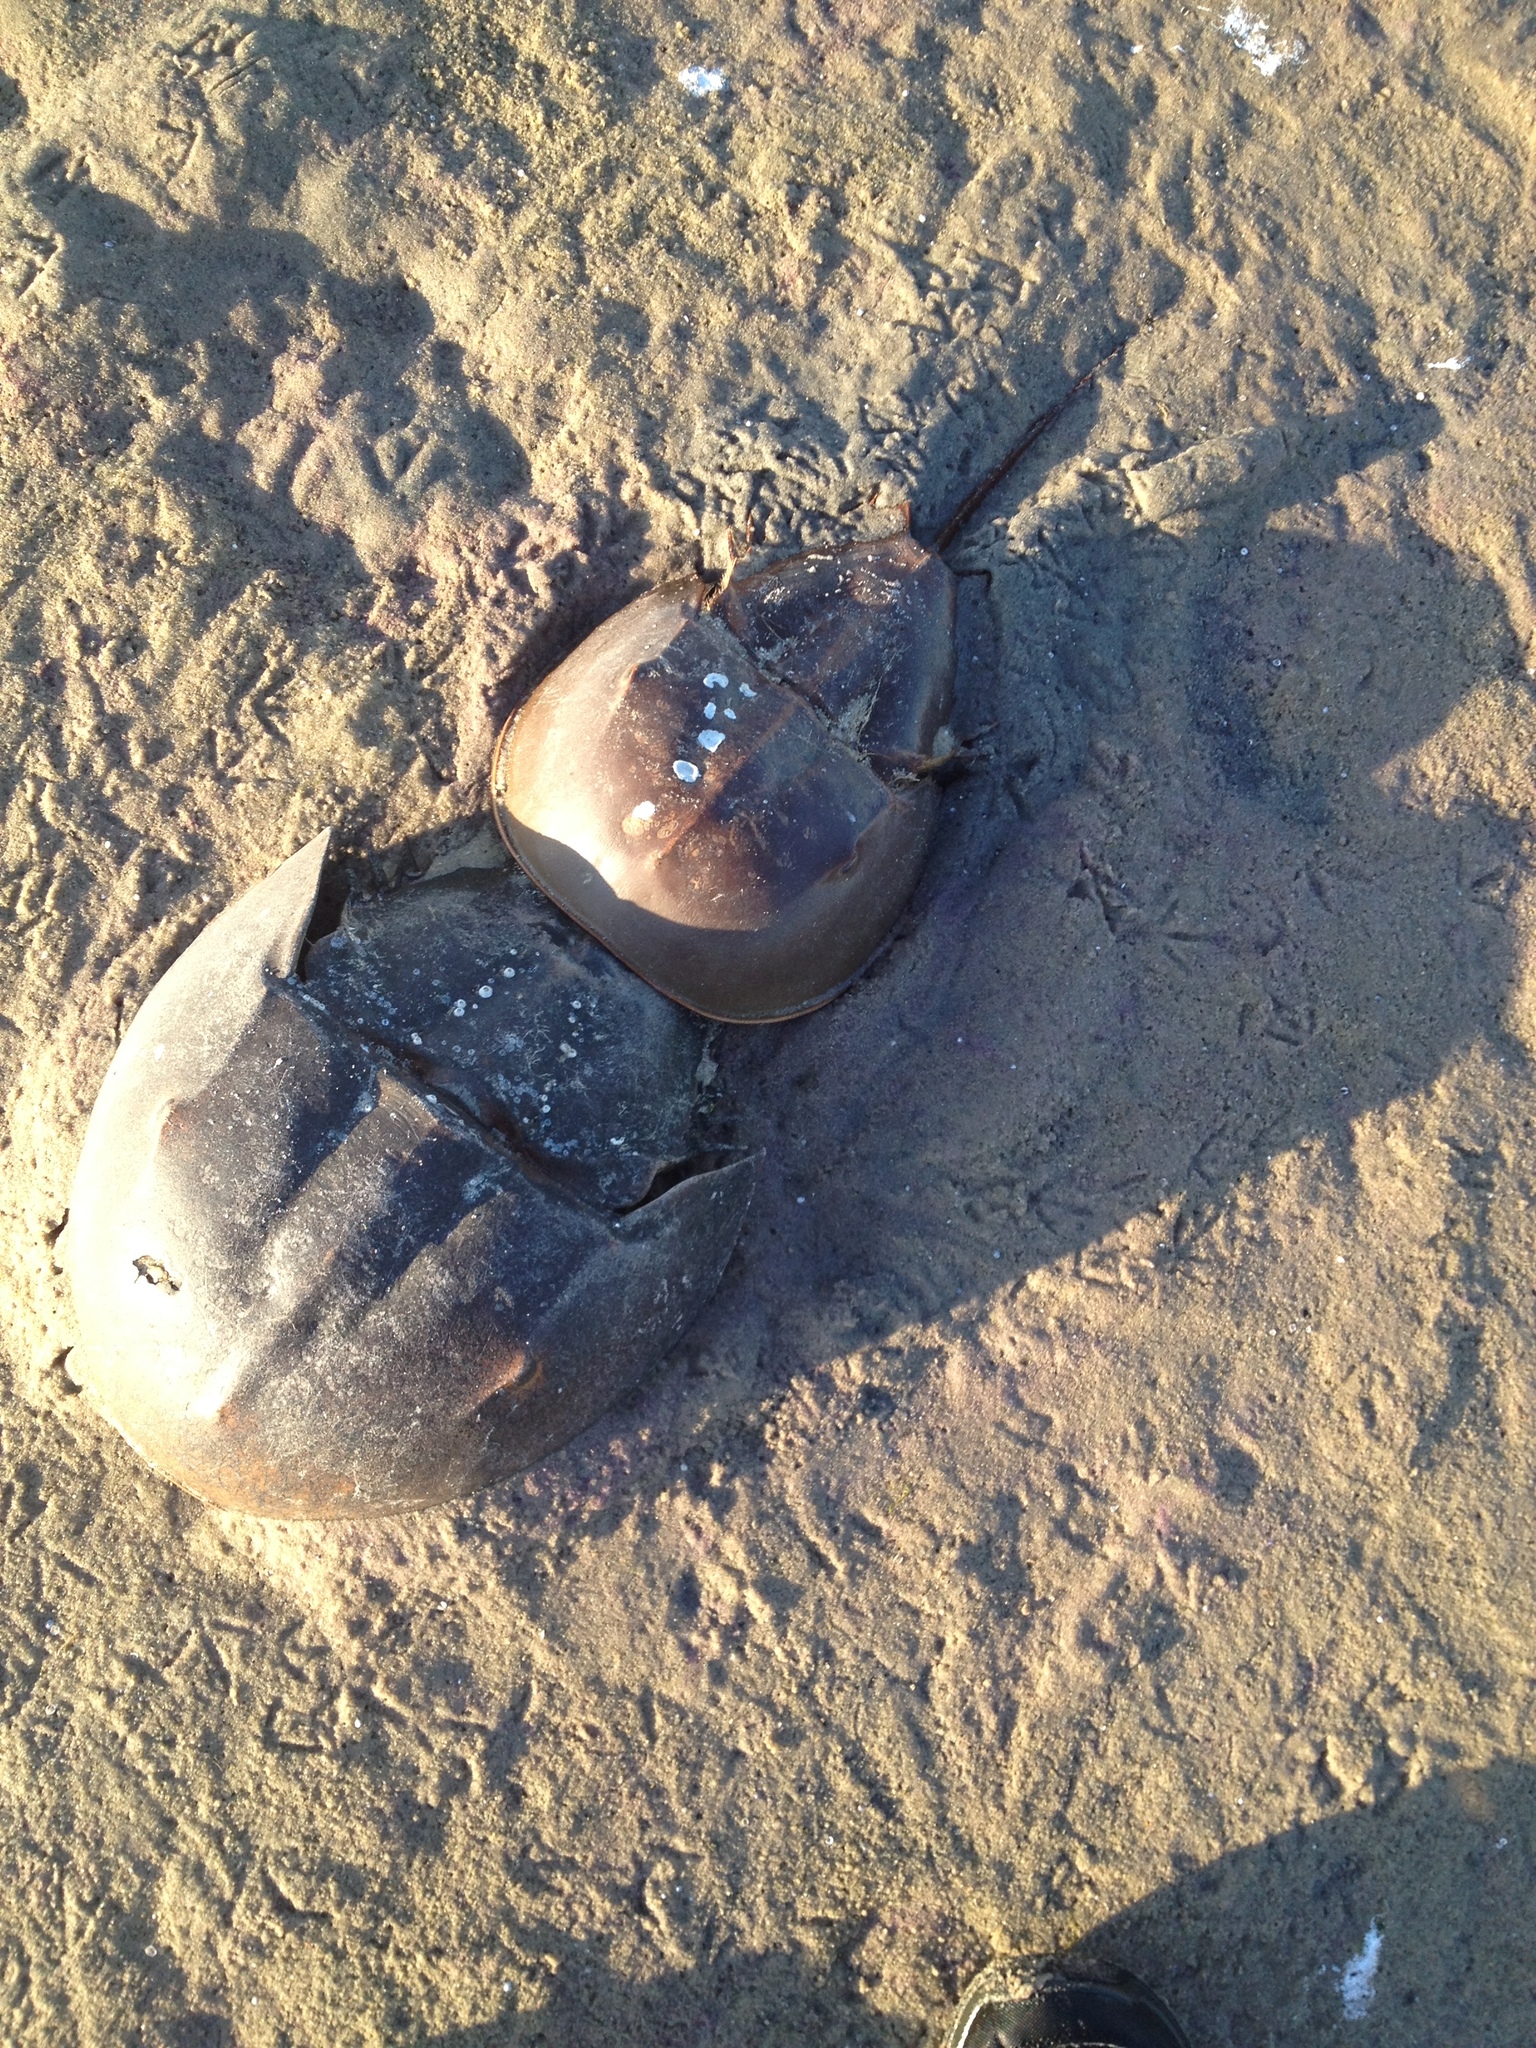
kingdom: Animalia
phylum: Arthropoda
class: Merostomata
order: Xiphosurida
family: Limulidae
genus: Limulus
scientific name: Limulus polyphemus
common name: Horseshoe crab
